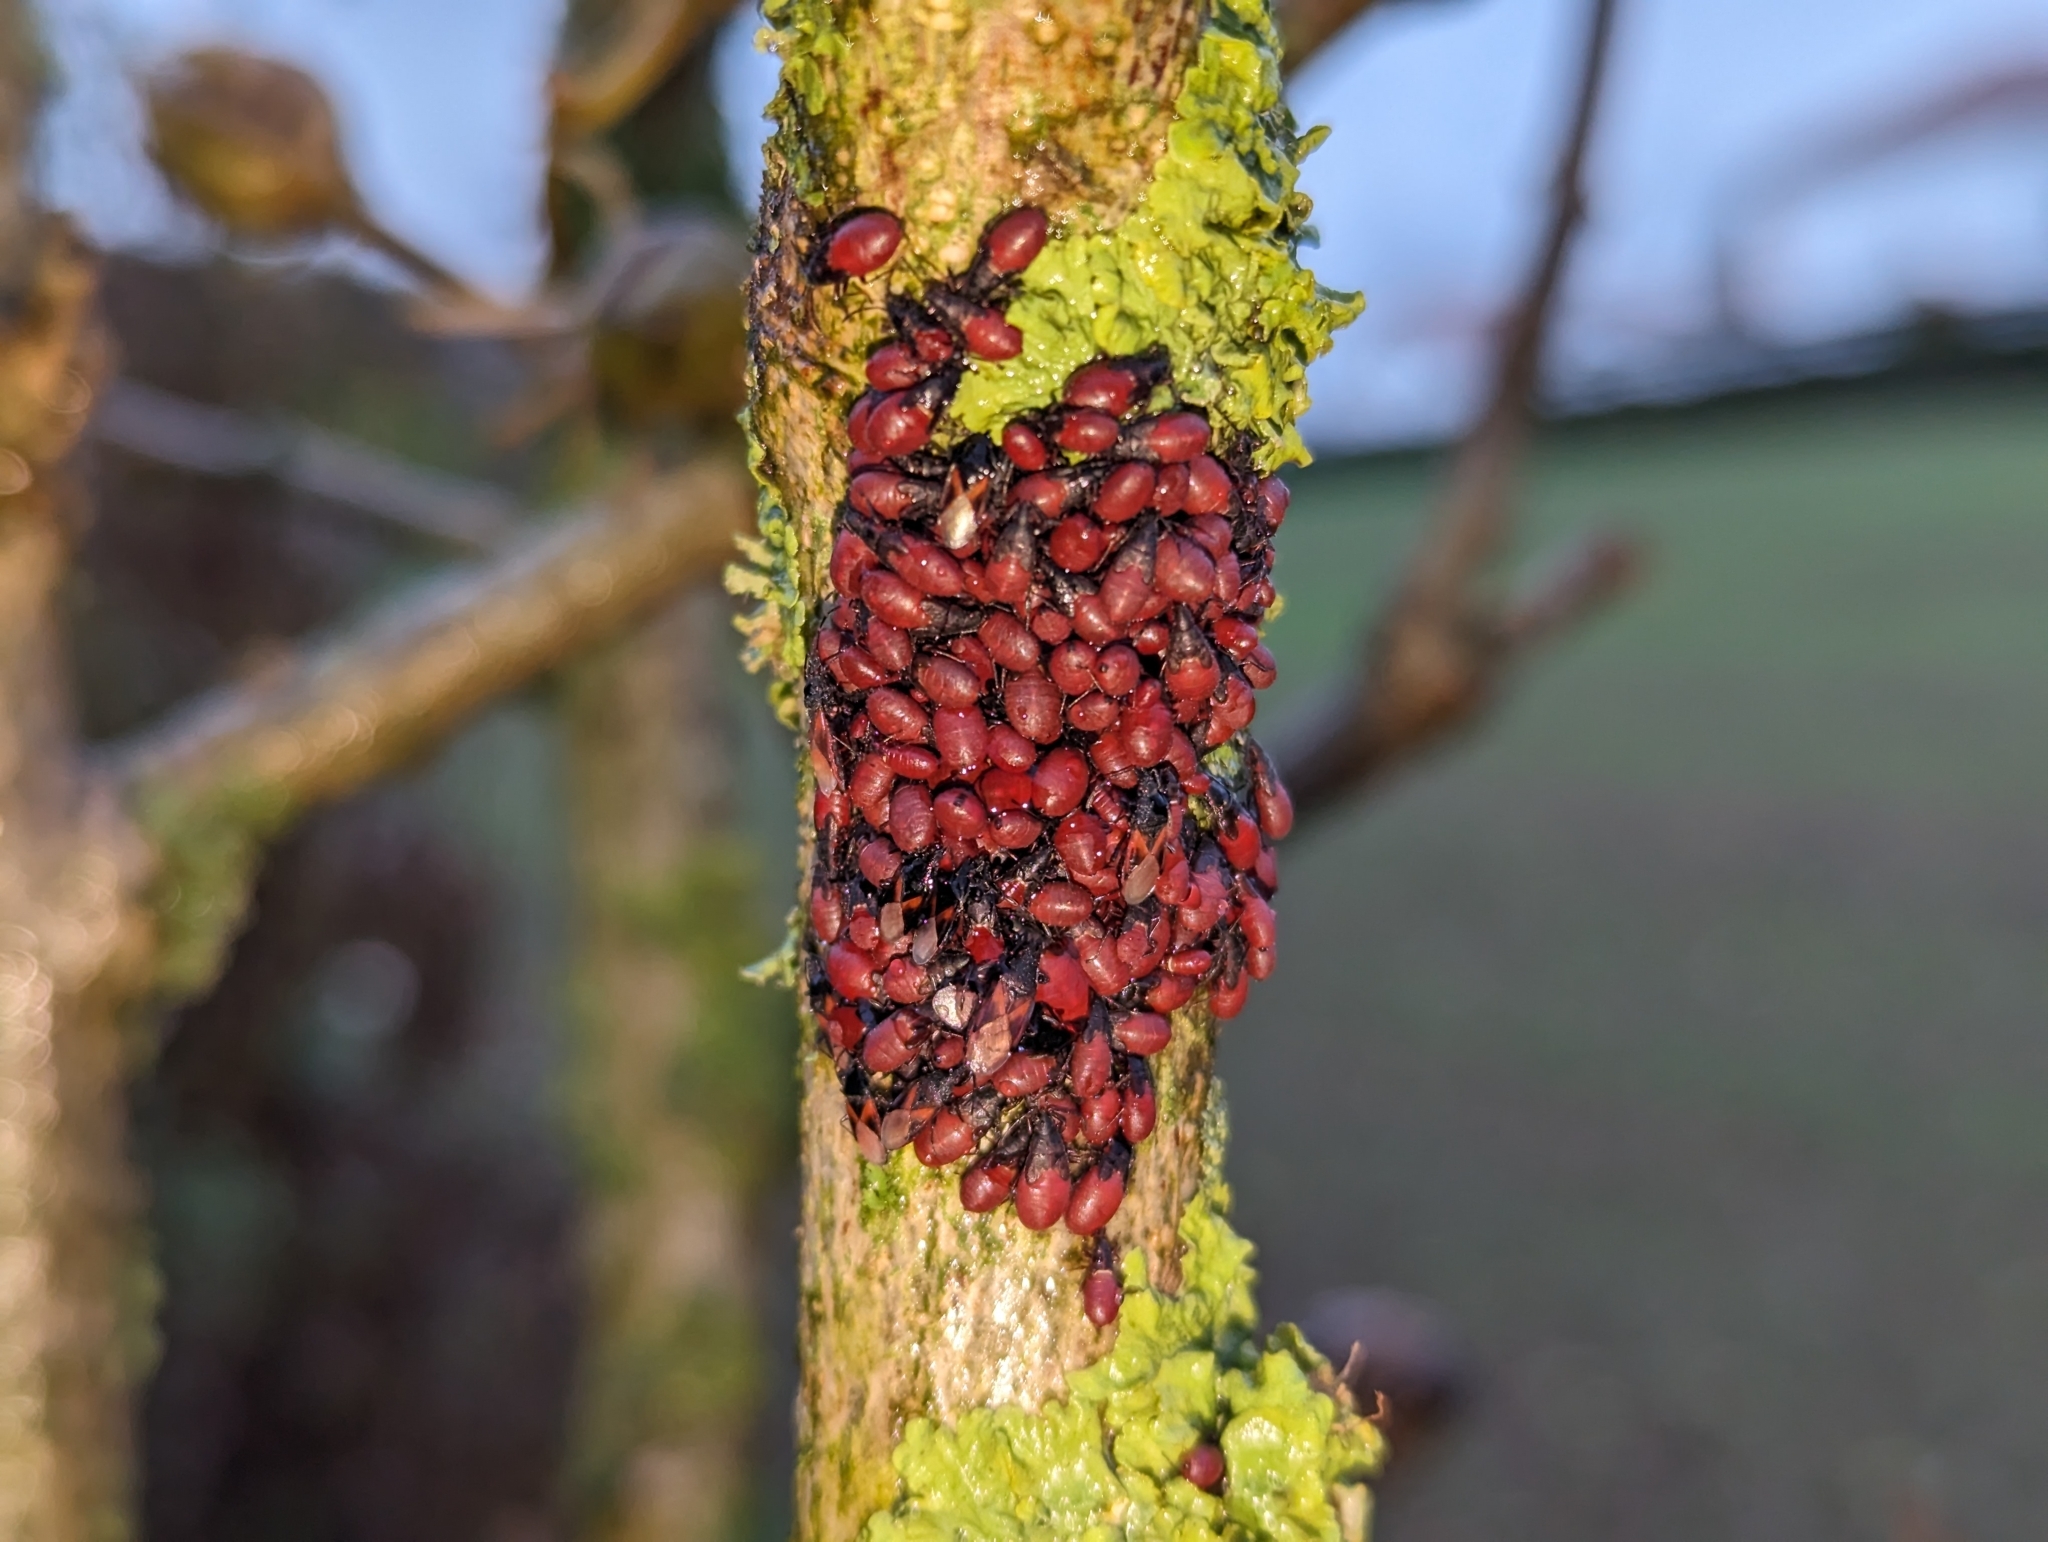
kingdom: Animalia
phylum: Arthropoda
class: Insecta
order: Hemiptera
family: Oxycarenidae
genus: Oxycarenus
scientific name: Oxycarenus lavaterae
